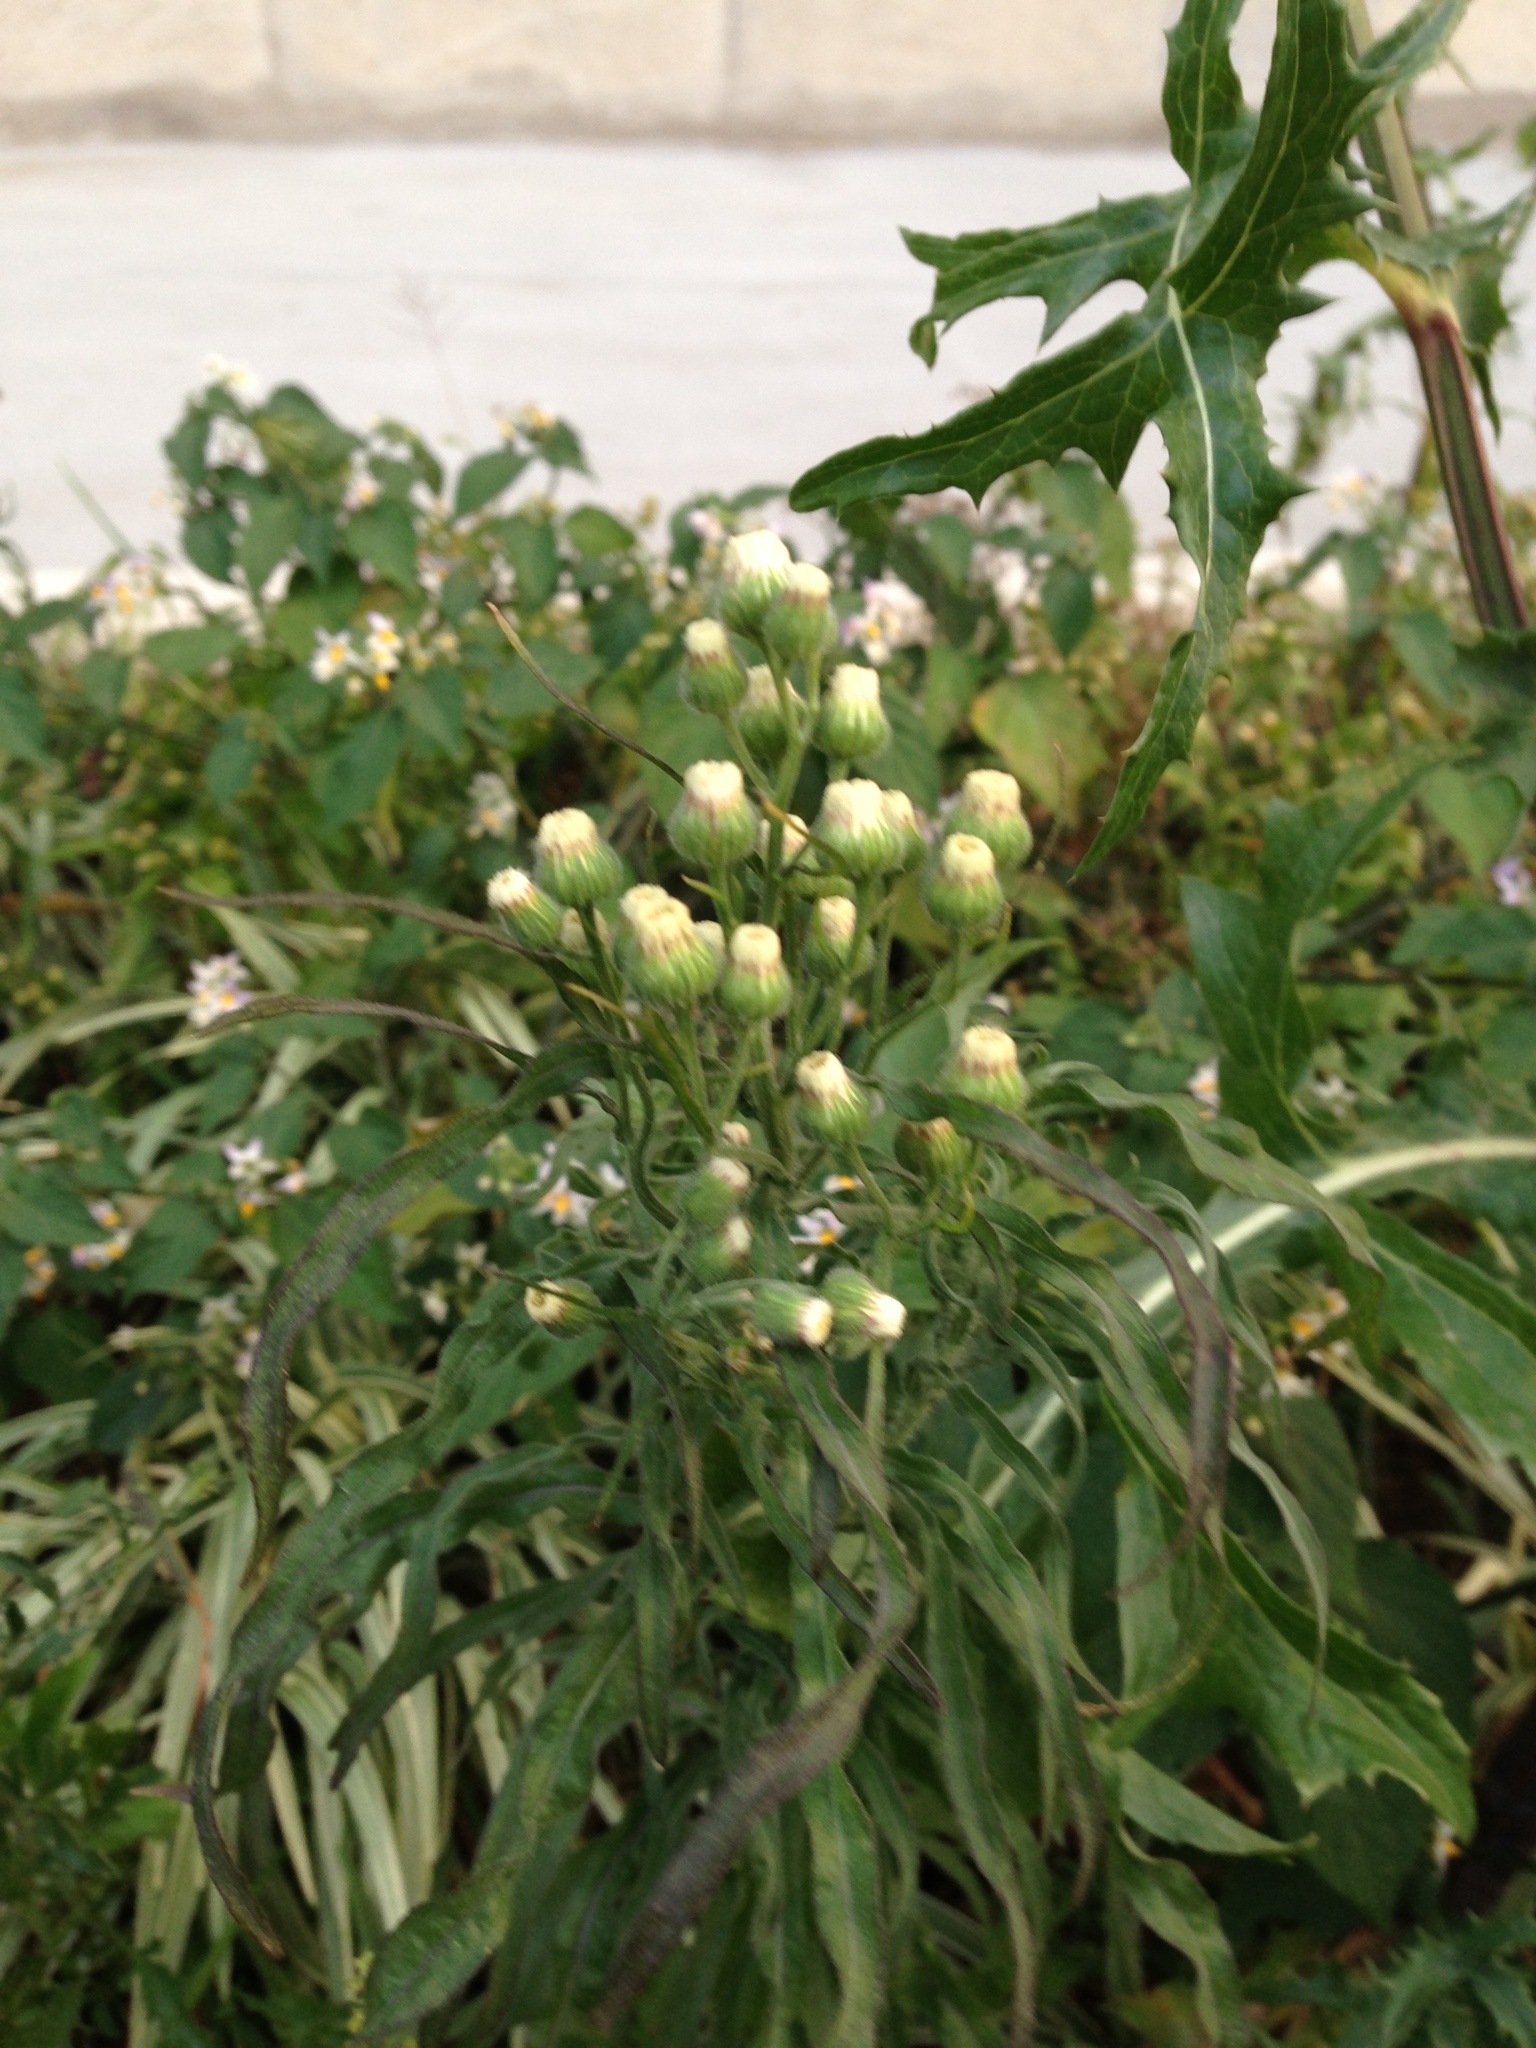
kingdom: Plantae
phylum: Tracheophyta
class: Magnoliopsida
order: Asterales
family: Asteraceae
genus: Erigeron
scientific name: Erigeron bonariensis
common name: Argentine fleabane
